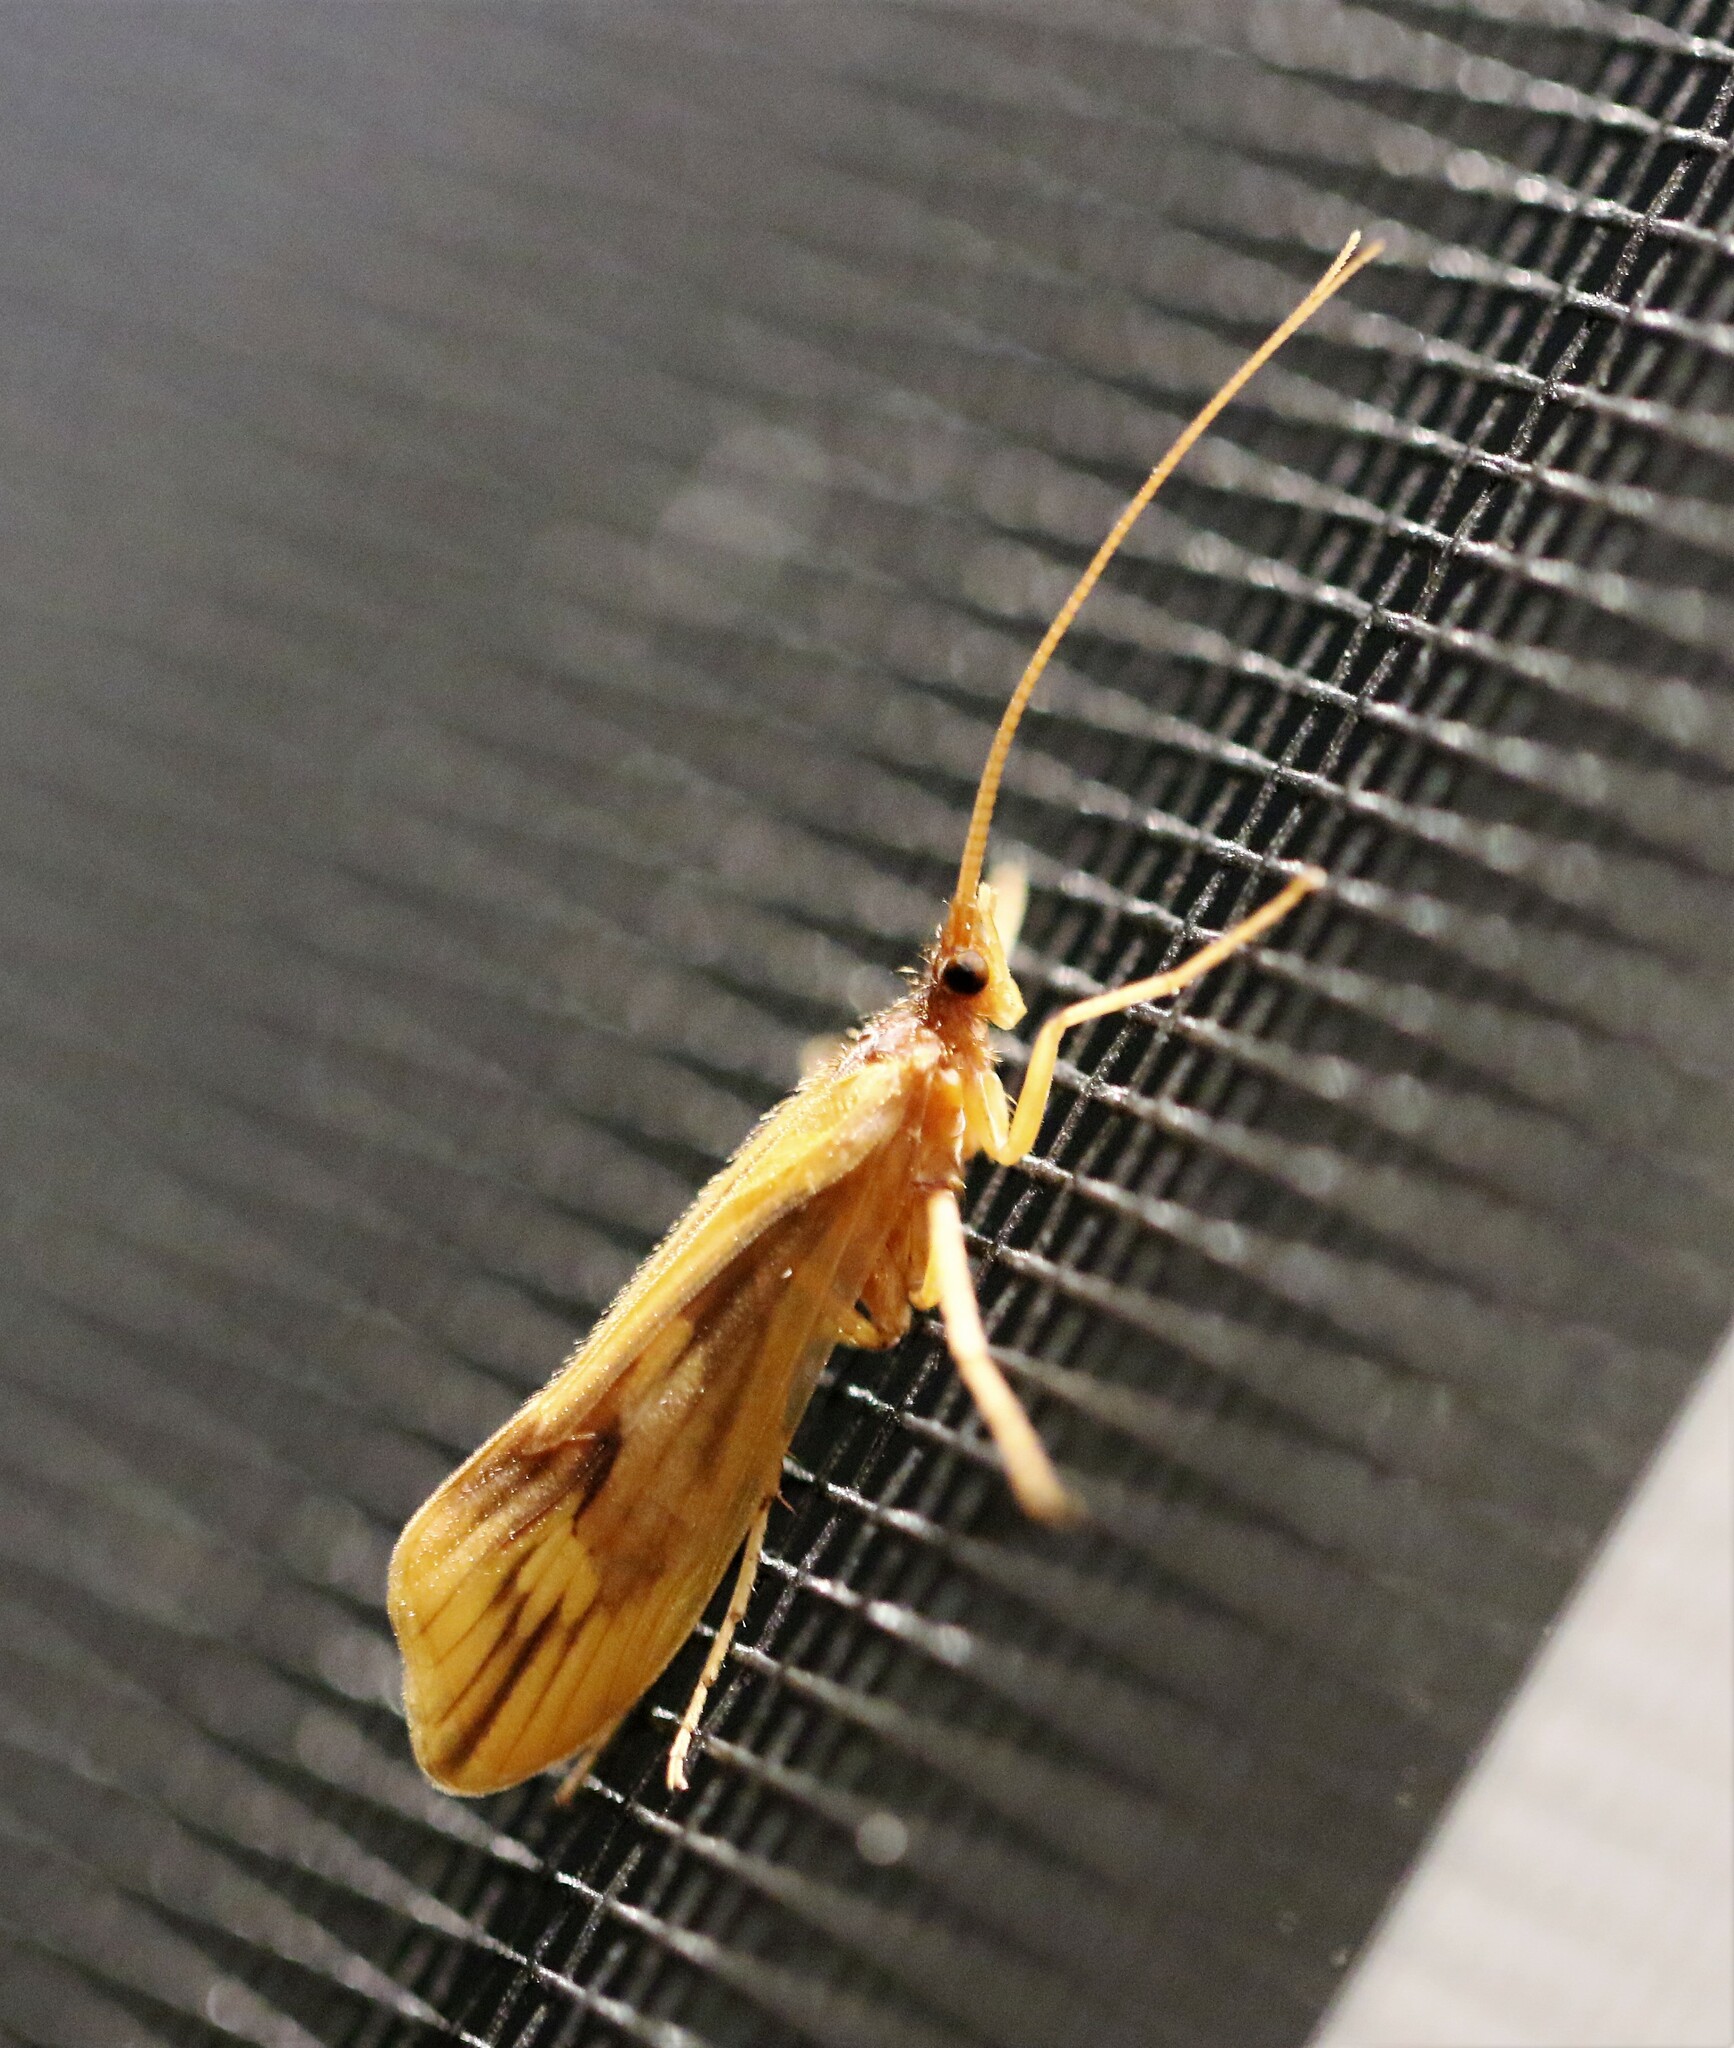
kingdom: Animalia
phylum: Arthropoda
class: Insecta
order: Trichoptera
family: Limnephilidae
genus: Platycentropus
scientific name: Platycentropus radiatus
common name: Chocolate-and-cream sedge
